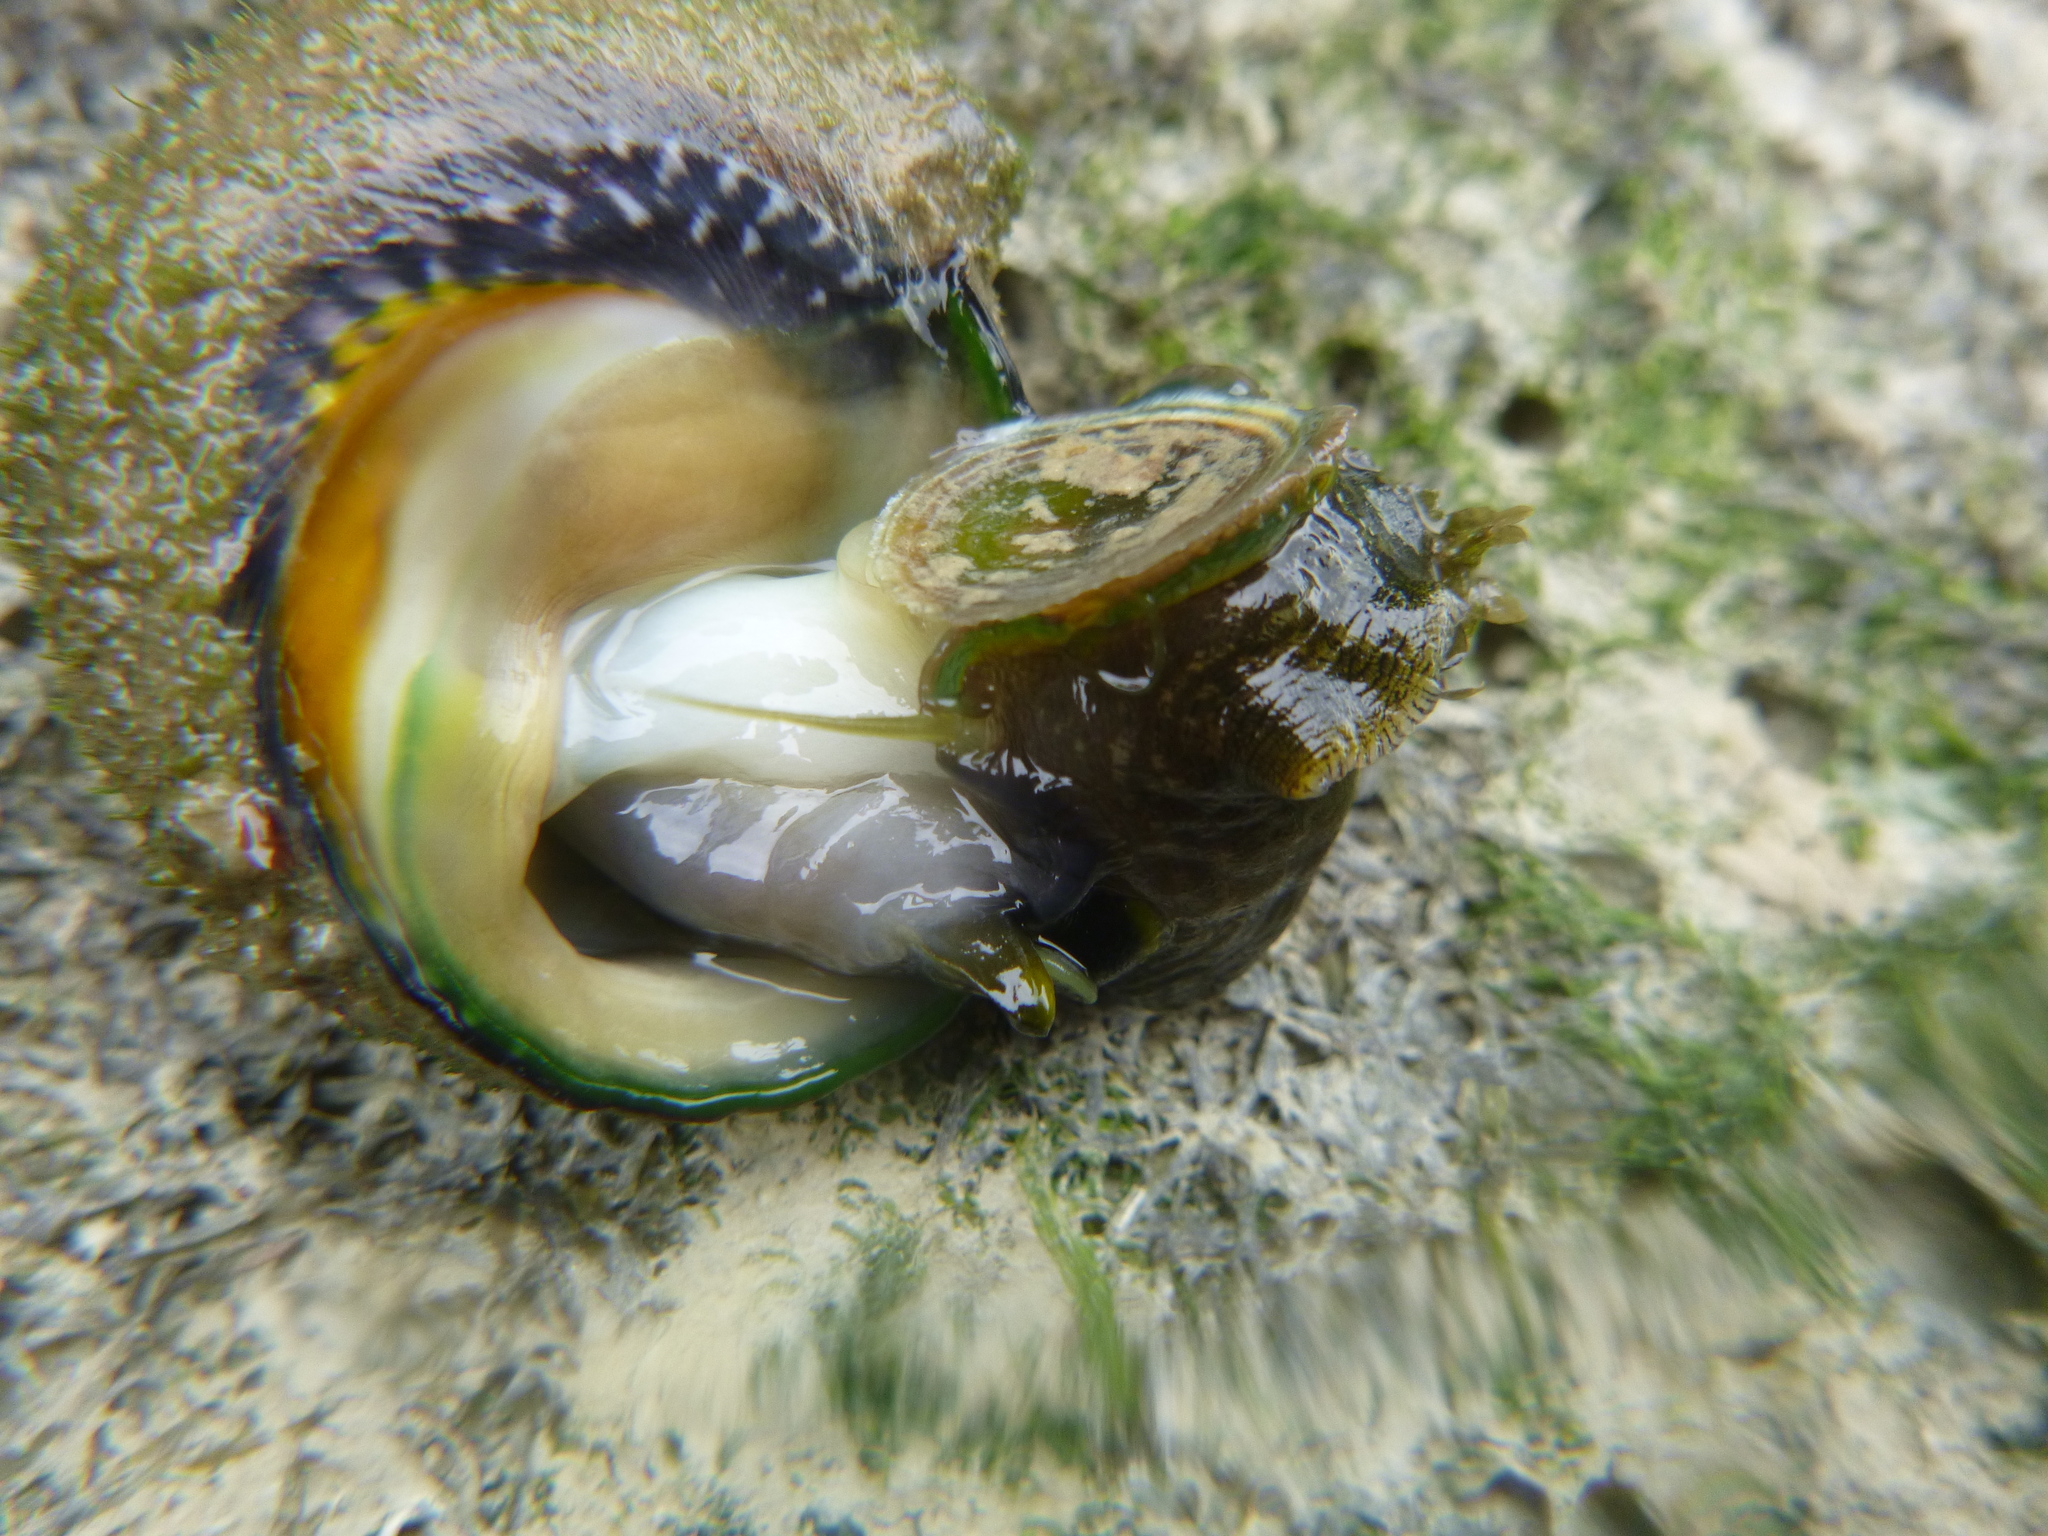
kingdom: Animalia
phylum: Mollusca
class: Gastropoda
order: Trochida
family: Trochidae
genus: Diloma
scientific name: Diloma aethiops
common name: Scorched monodont
